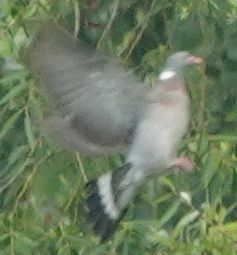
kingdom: Animalia
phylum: Chordata
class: Aves
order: Columbiformes
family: Columbidae
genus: Columba
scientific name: Columba palumbus
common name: Common wood pigeon
